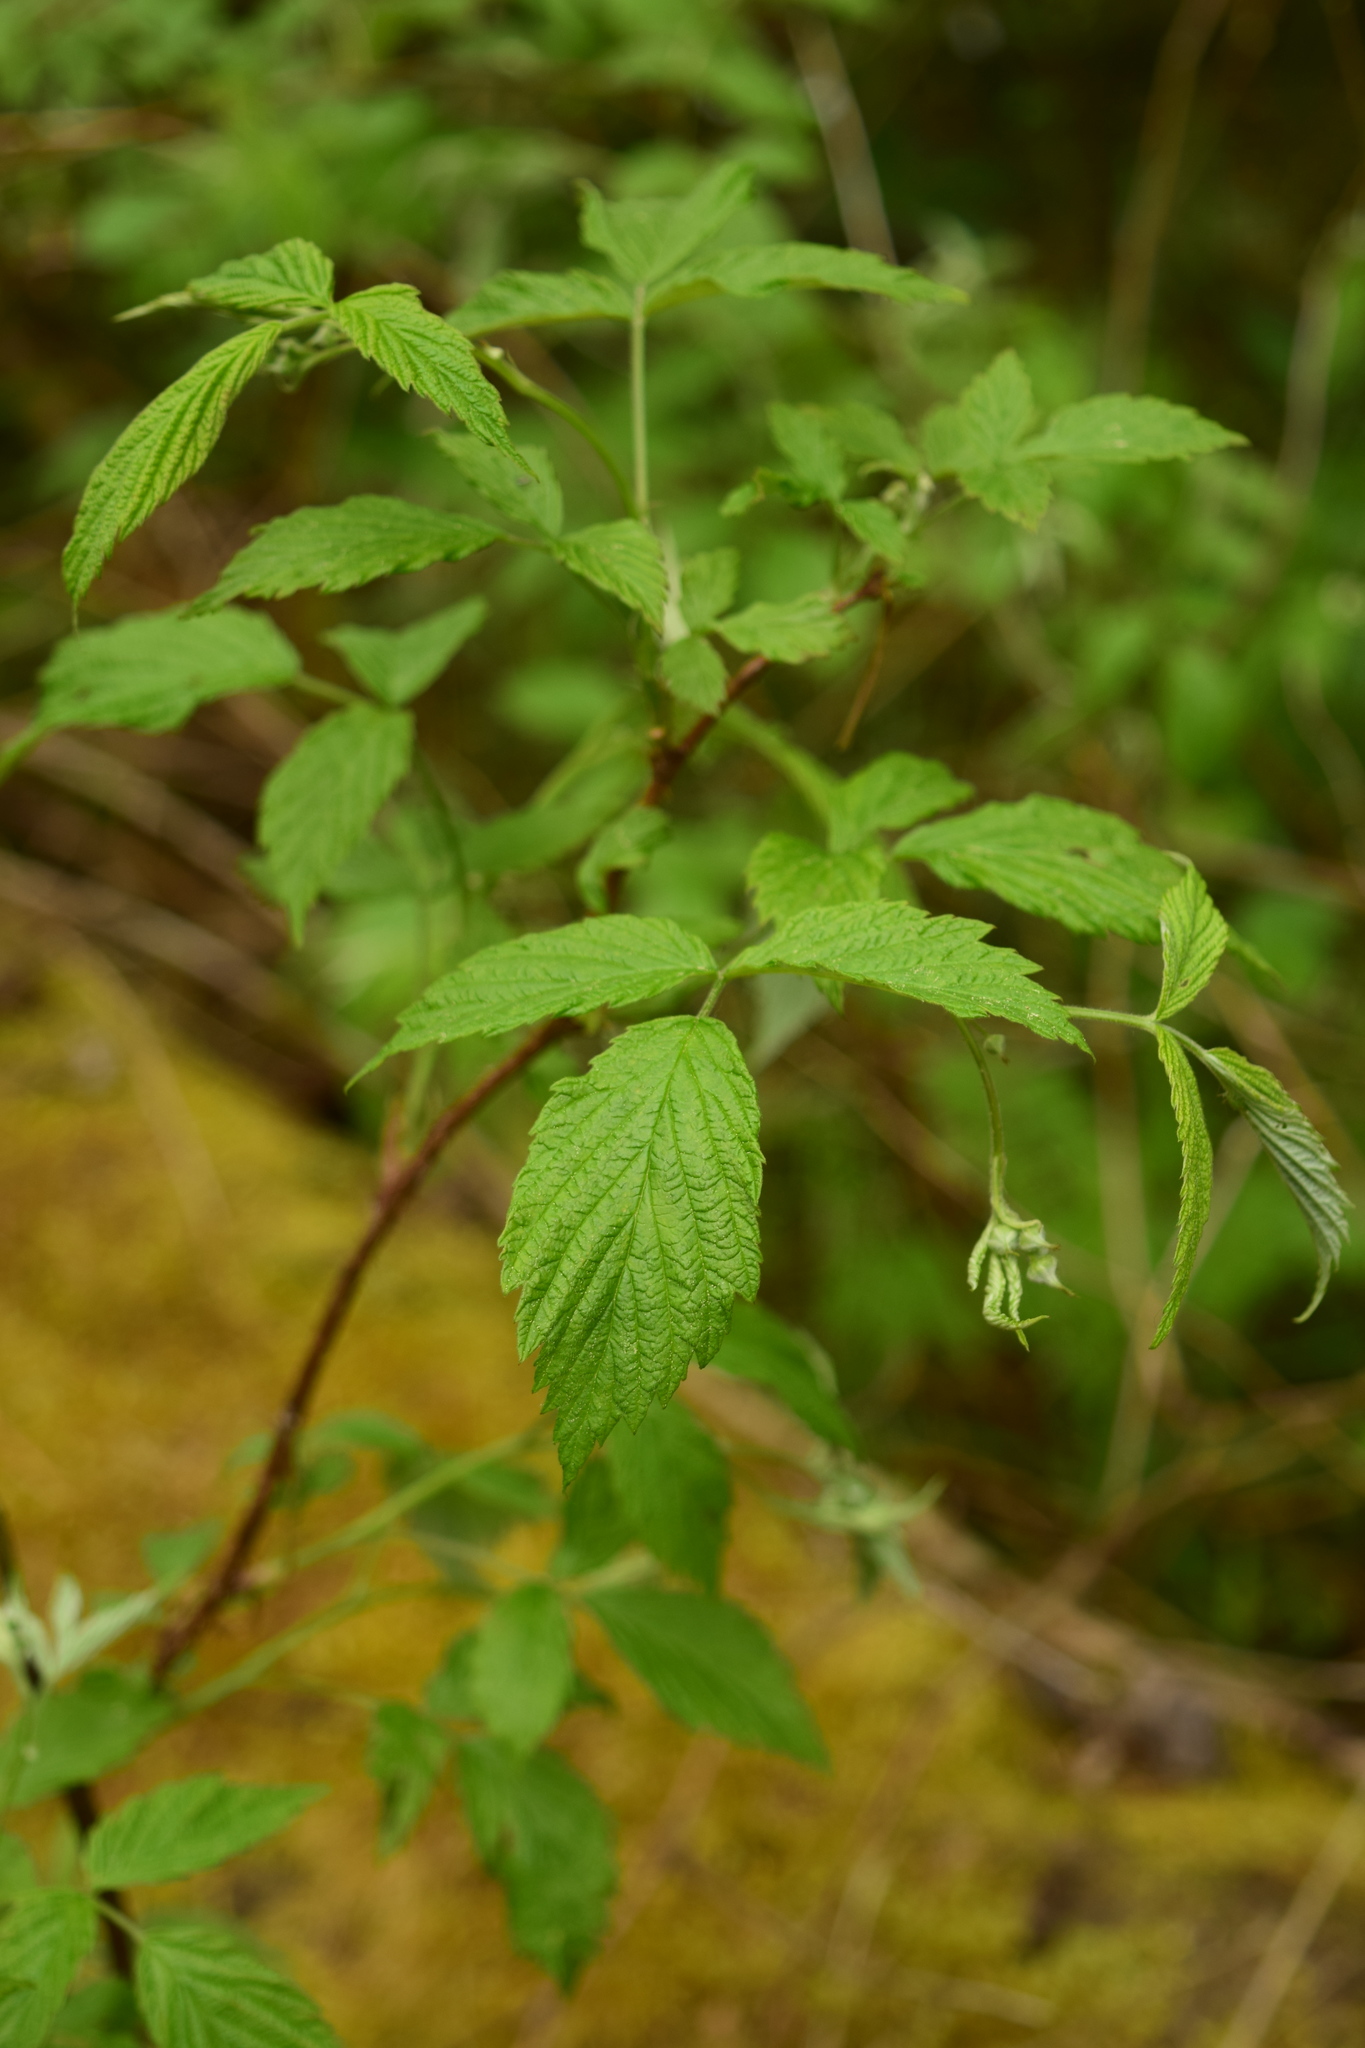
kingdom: Plantae
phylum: Tracheophyta
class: Magnoliopsida
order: Rosales
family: Rosaceae
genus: Rubus
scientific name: Rubus idaeus
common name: Raspberry
